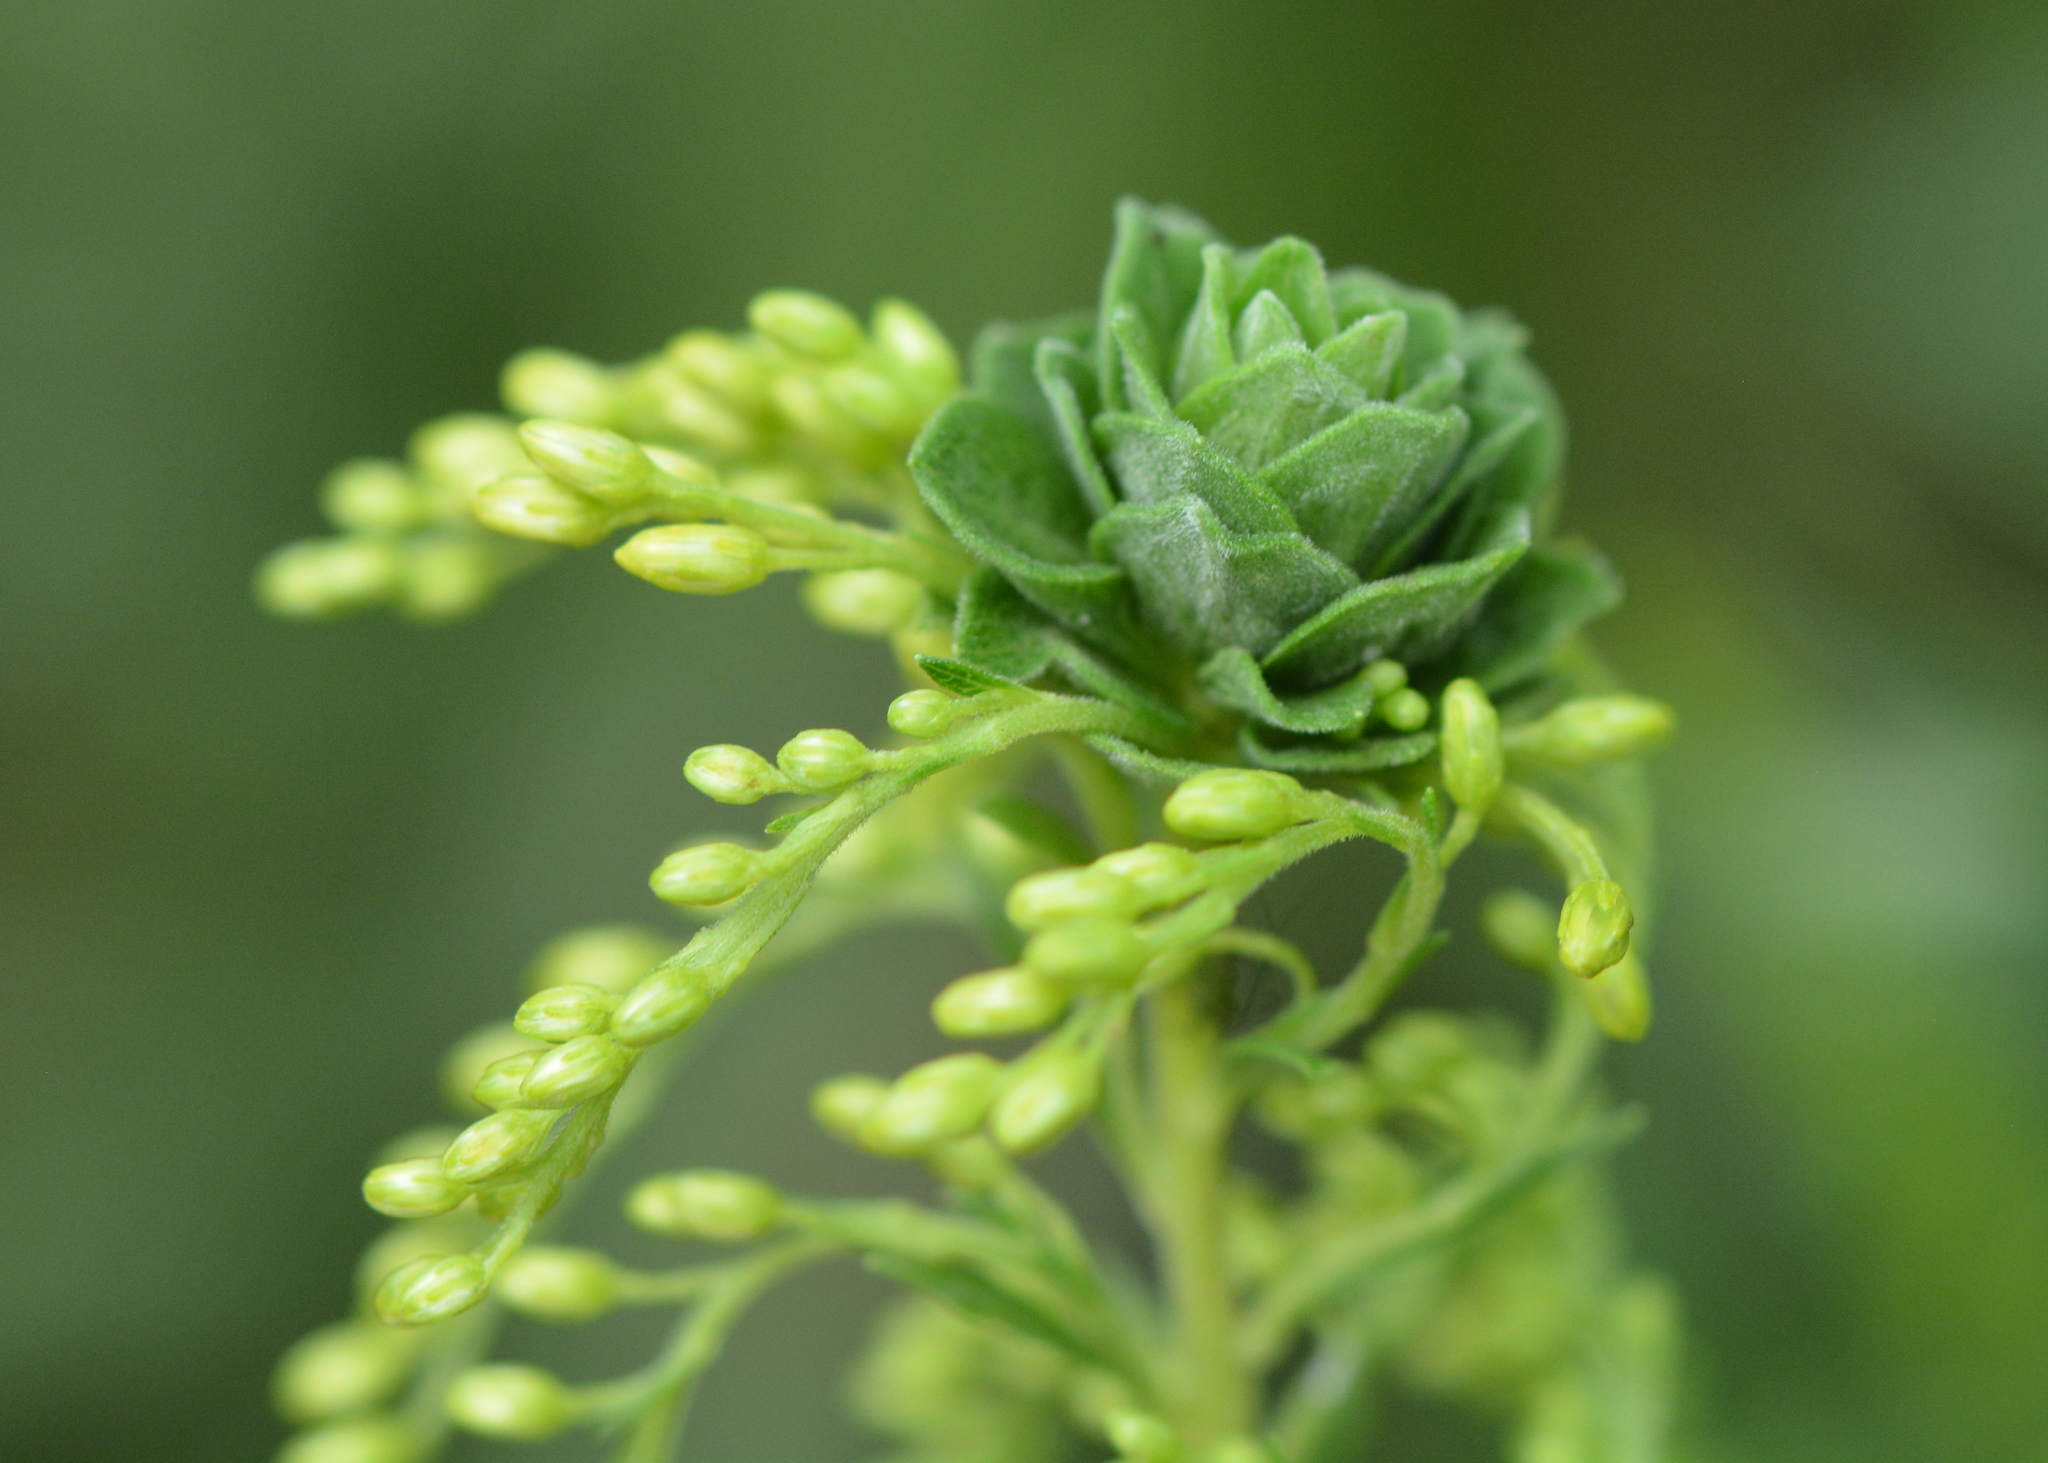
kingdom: Animalia
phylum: Arthropoda
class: Insecta
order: Diptera
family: Cecidomyiidae
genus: Asphondylia
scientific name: Asphondylia solidaginis
